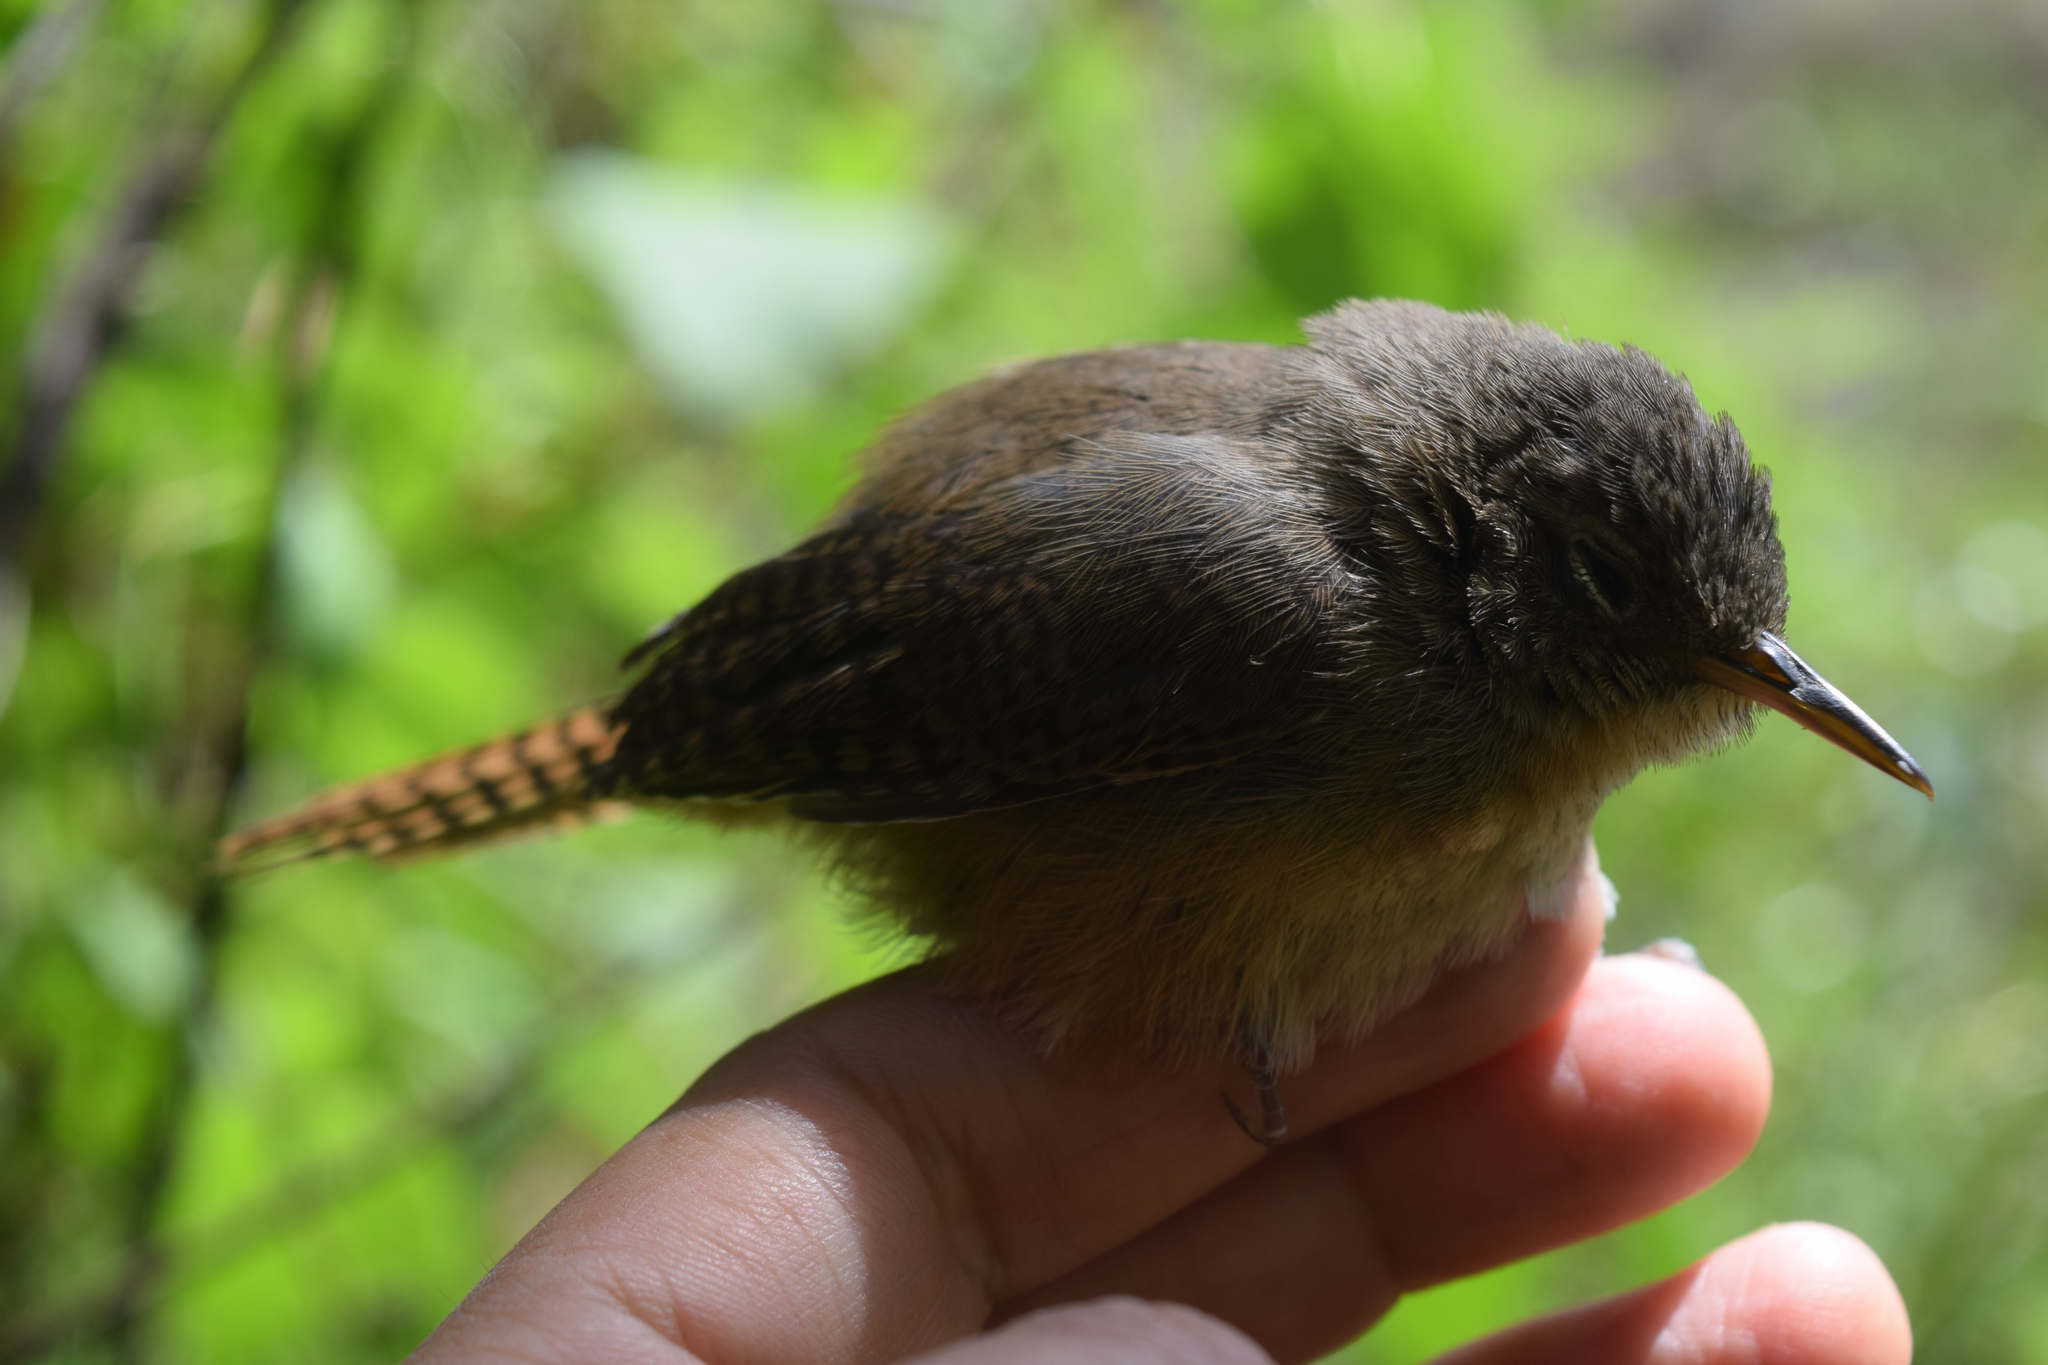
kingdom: Animalia
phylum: Chordata
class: Aves
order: Passeriformes
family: Troglodytidae
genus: Troglodytes
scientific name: Troglodytes aedon
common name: House wren
